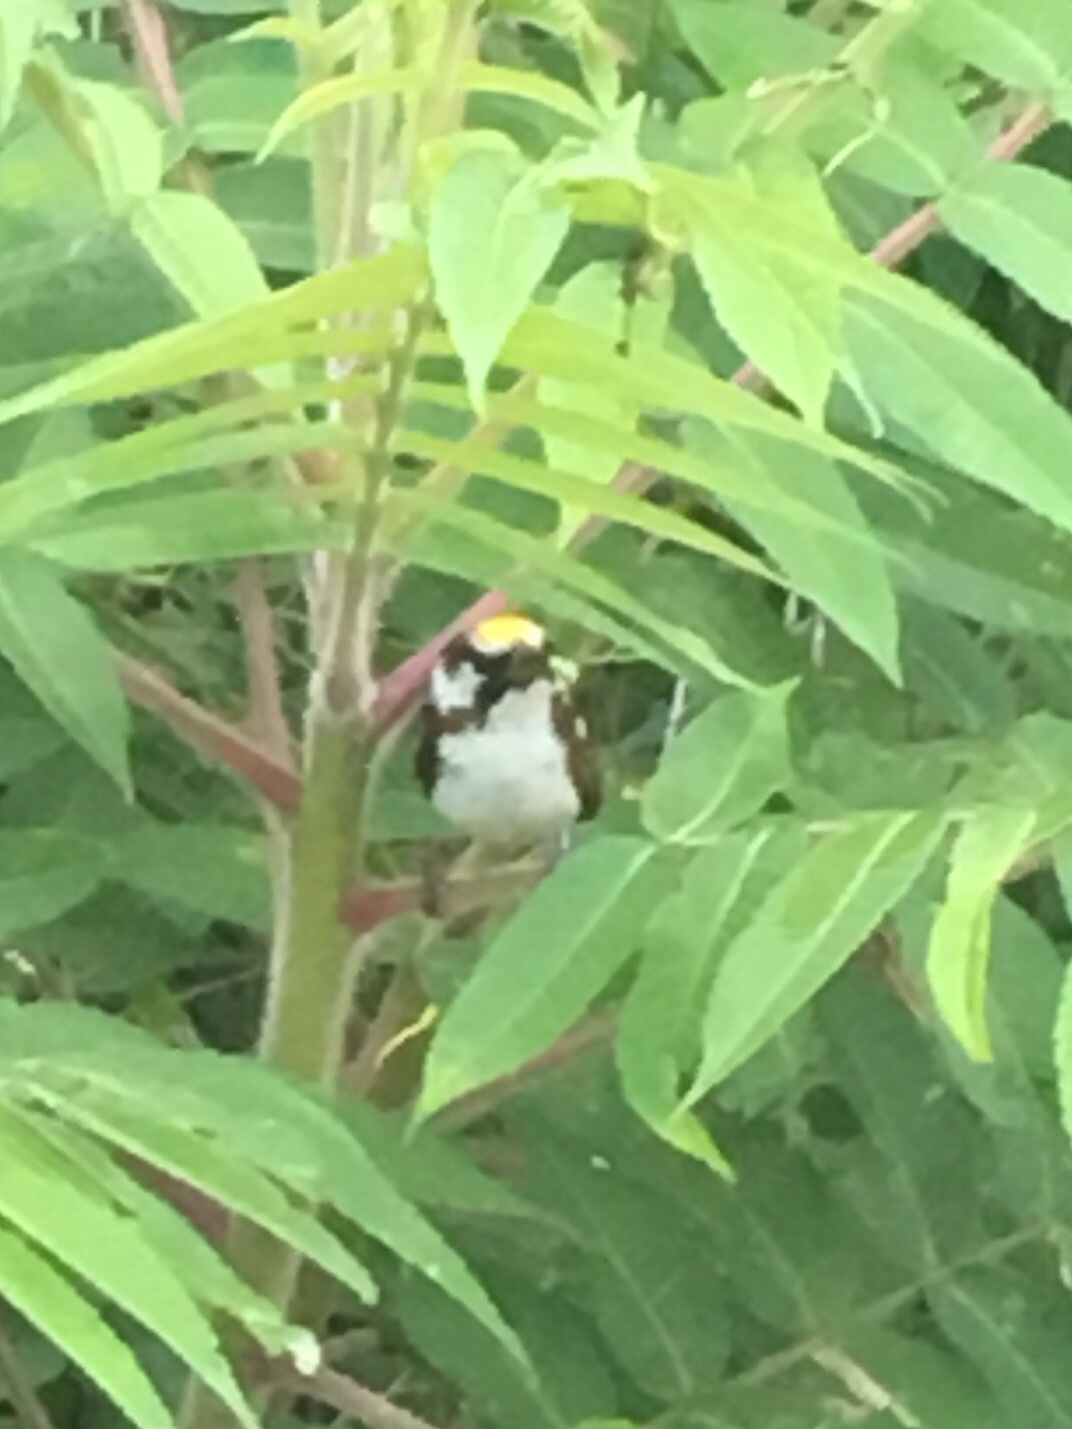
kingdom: Animalia
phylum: Chordata
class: Aves
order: Passeriformes
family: Parulidae
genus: Setophaga
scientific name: Setophaga pensylvanica
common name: Chestnut-sided warbler
